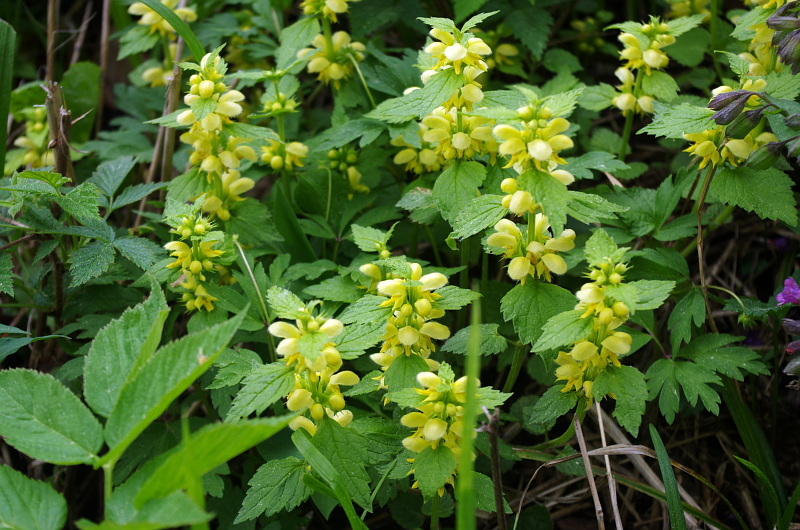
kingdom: Plantae
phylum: Tracheophyta
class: Magnoliopsida
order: Lamiales
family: Lamiaceae
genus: Lamium
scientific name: Lamium galeobdolon
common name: Yellow archangel
